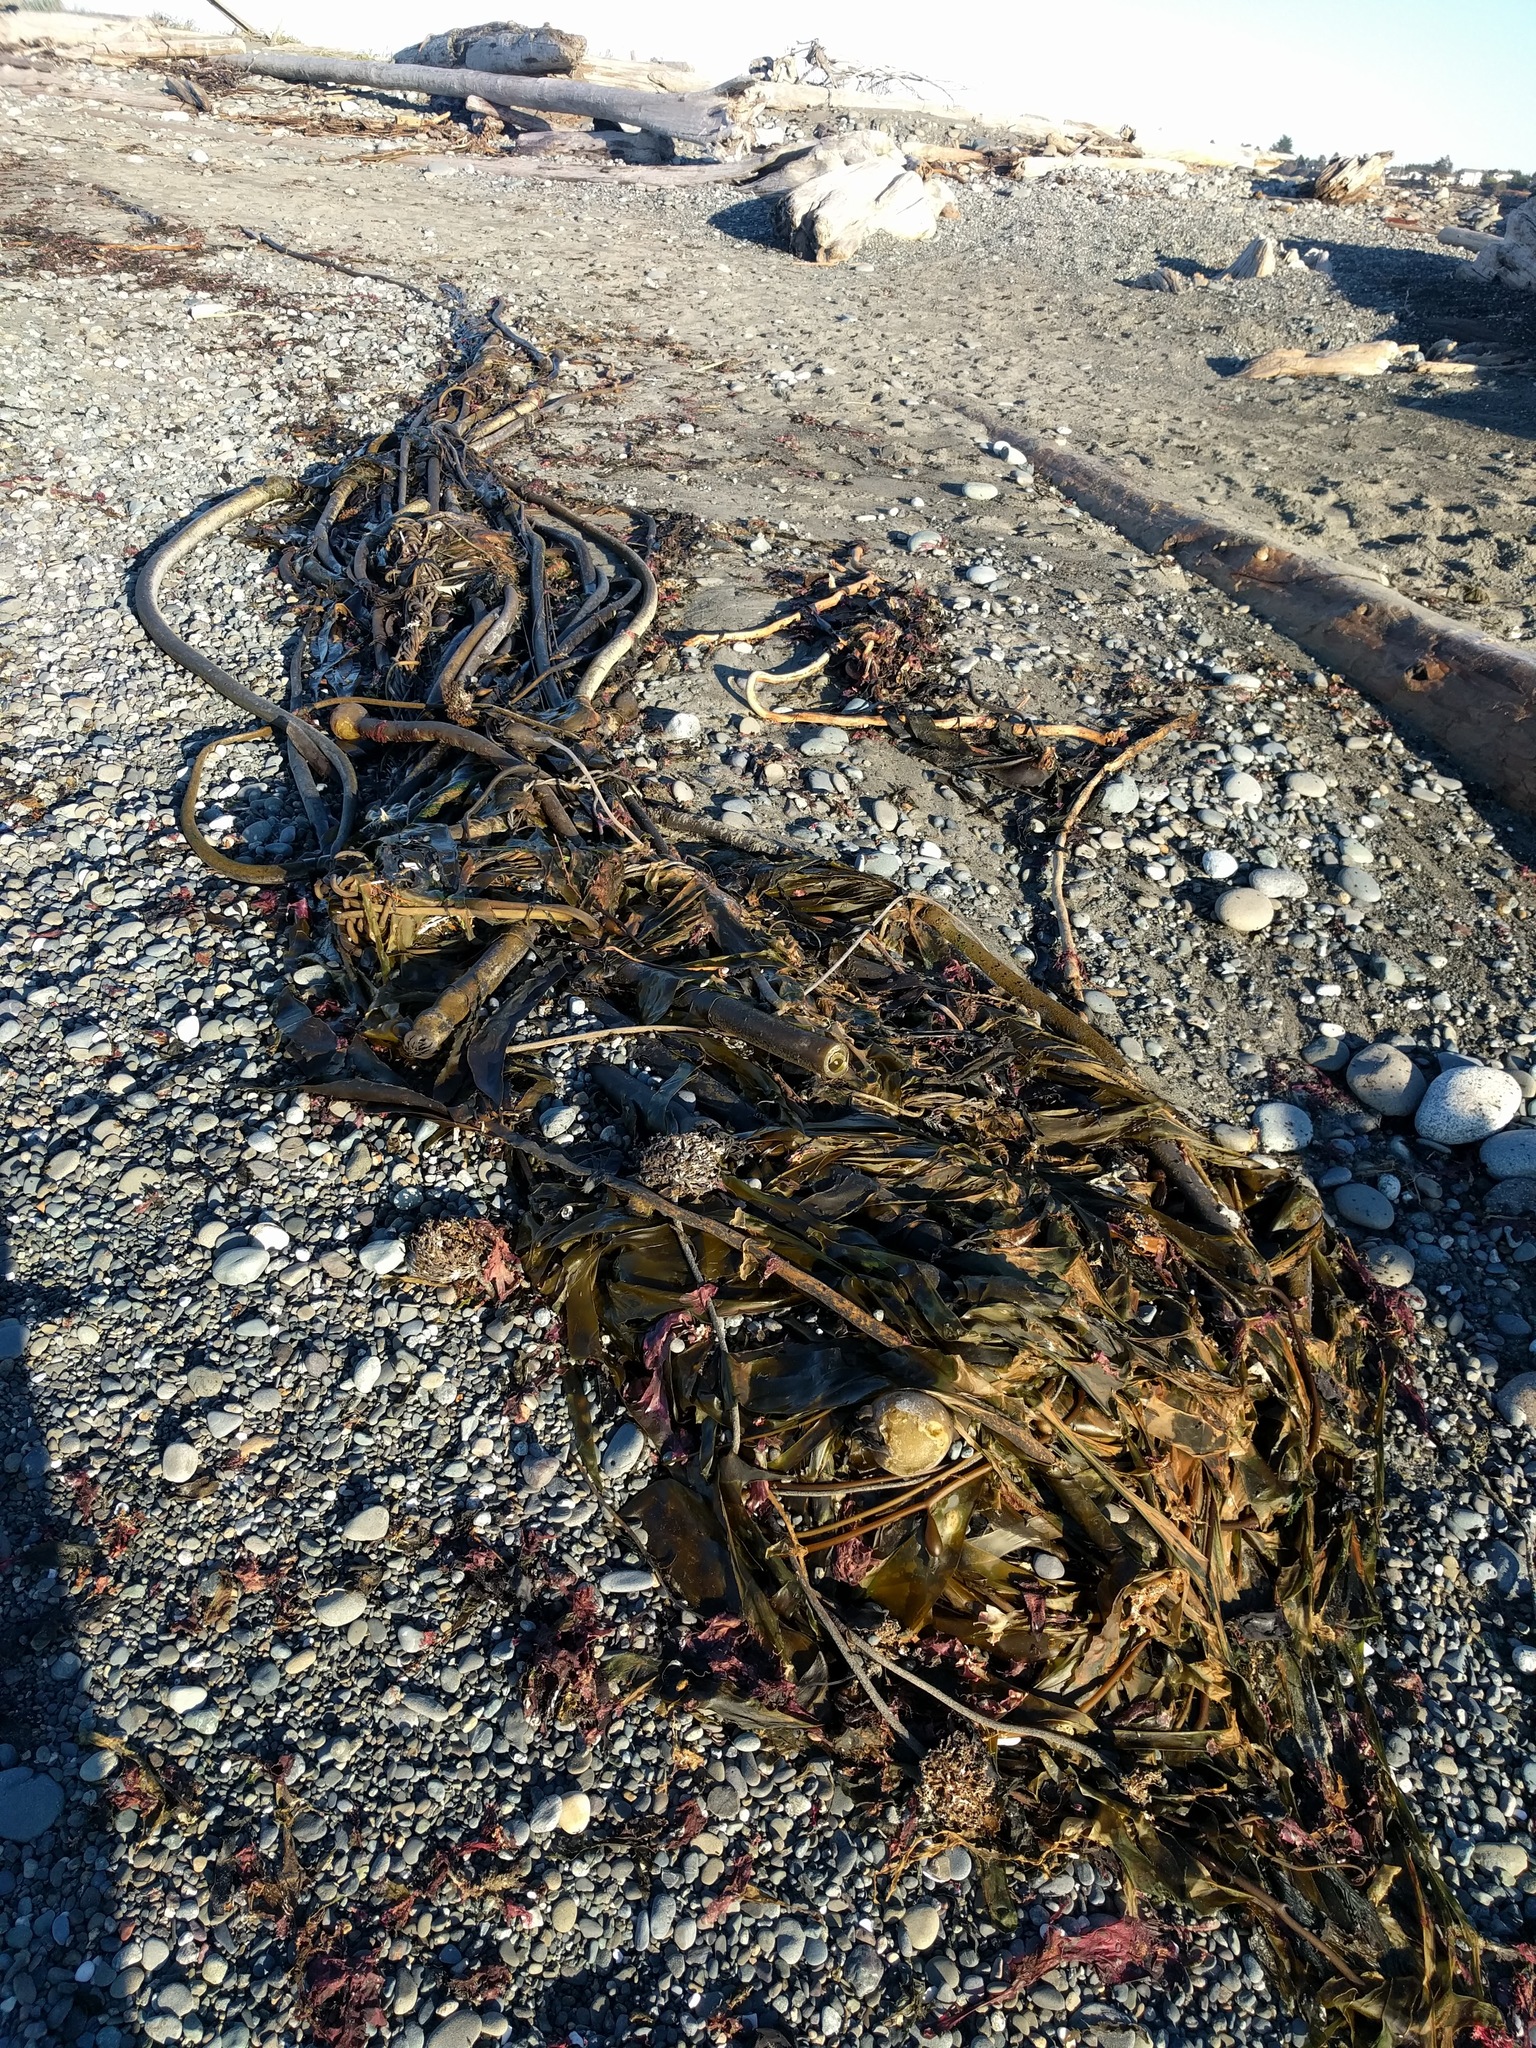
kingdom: Chromista
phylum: Ochrophyta
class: Phaeophyceae
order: Laminariales
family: Laminariaceae
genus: Nereocystis
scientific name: Nereocystis luetkeana
